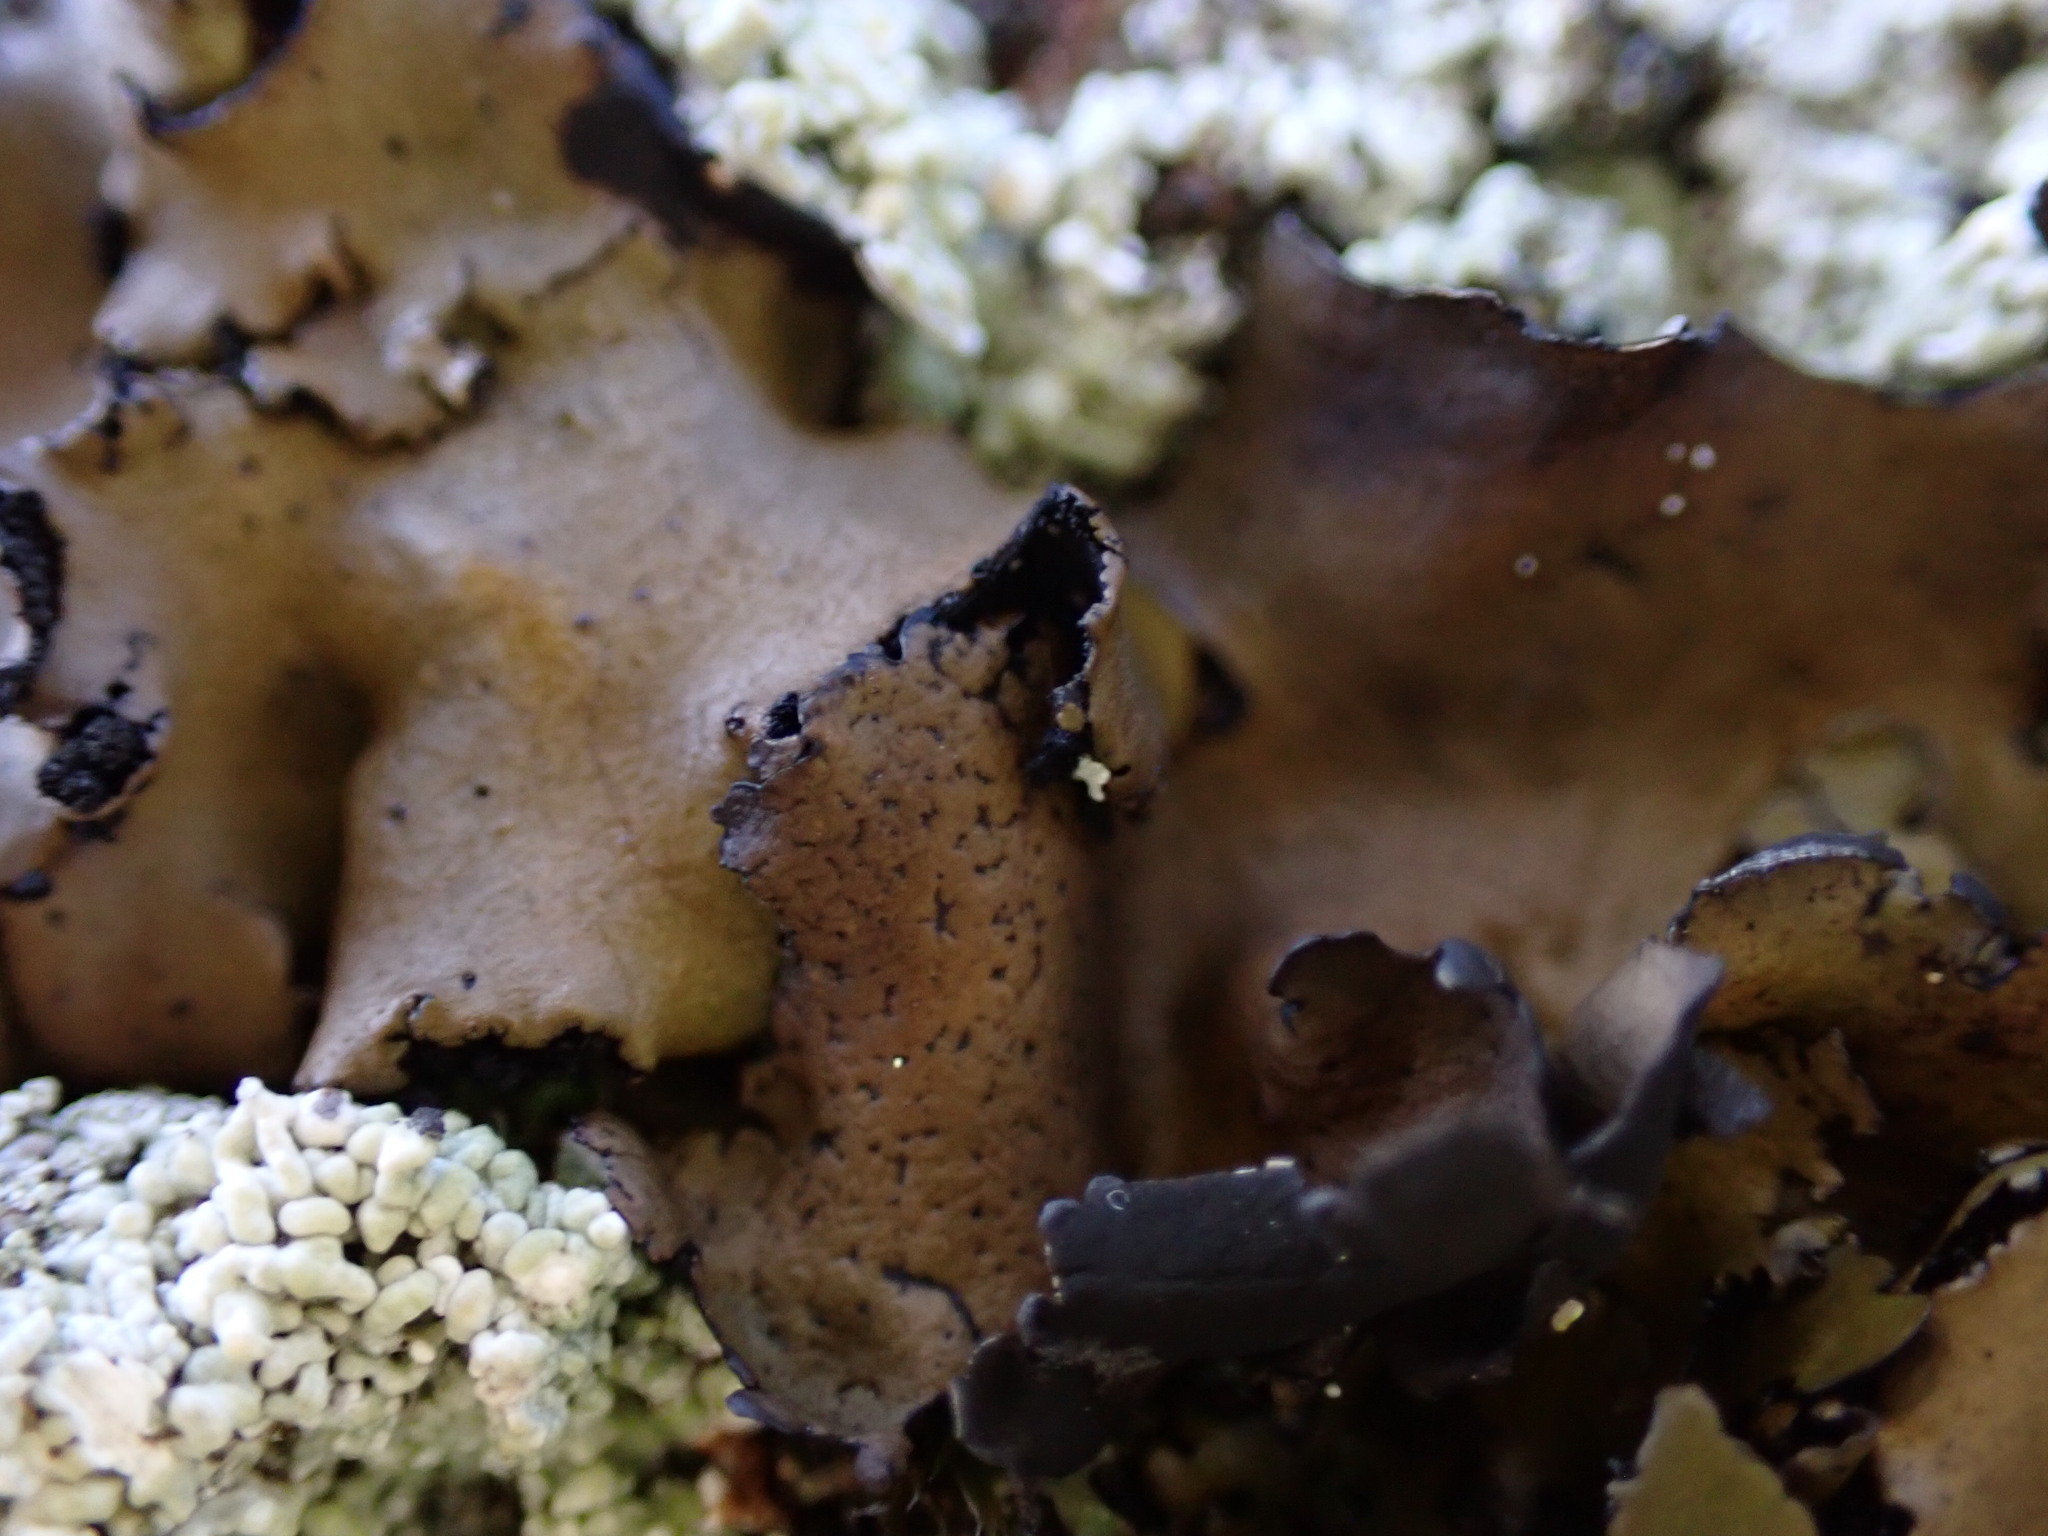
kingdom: Fungi
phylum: Ascomycota
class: Lecanoromycetes
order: Umbilicariales
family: Umbilicariaceae
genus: Umbilicaria
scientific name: Umbilicaria polyphylla
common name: Petalled rocktripe lichen
